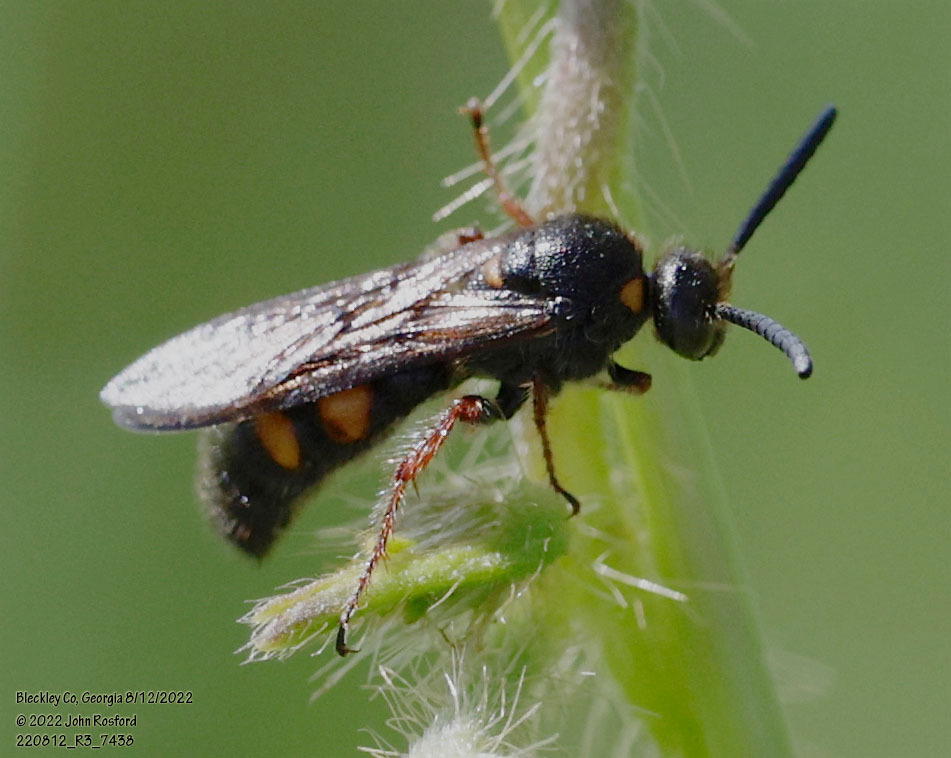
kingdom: Animalia
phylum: Arthropoda
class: Insecta
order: Hymenoptera
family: Scoliidae
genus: Scolia
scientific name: Scolia nobilitata
